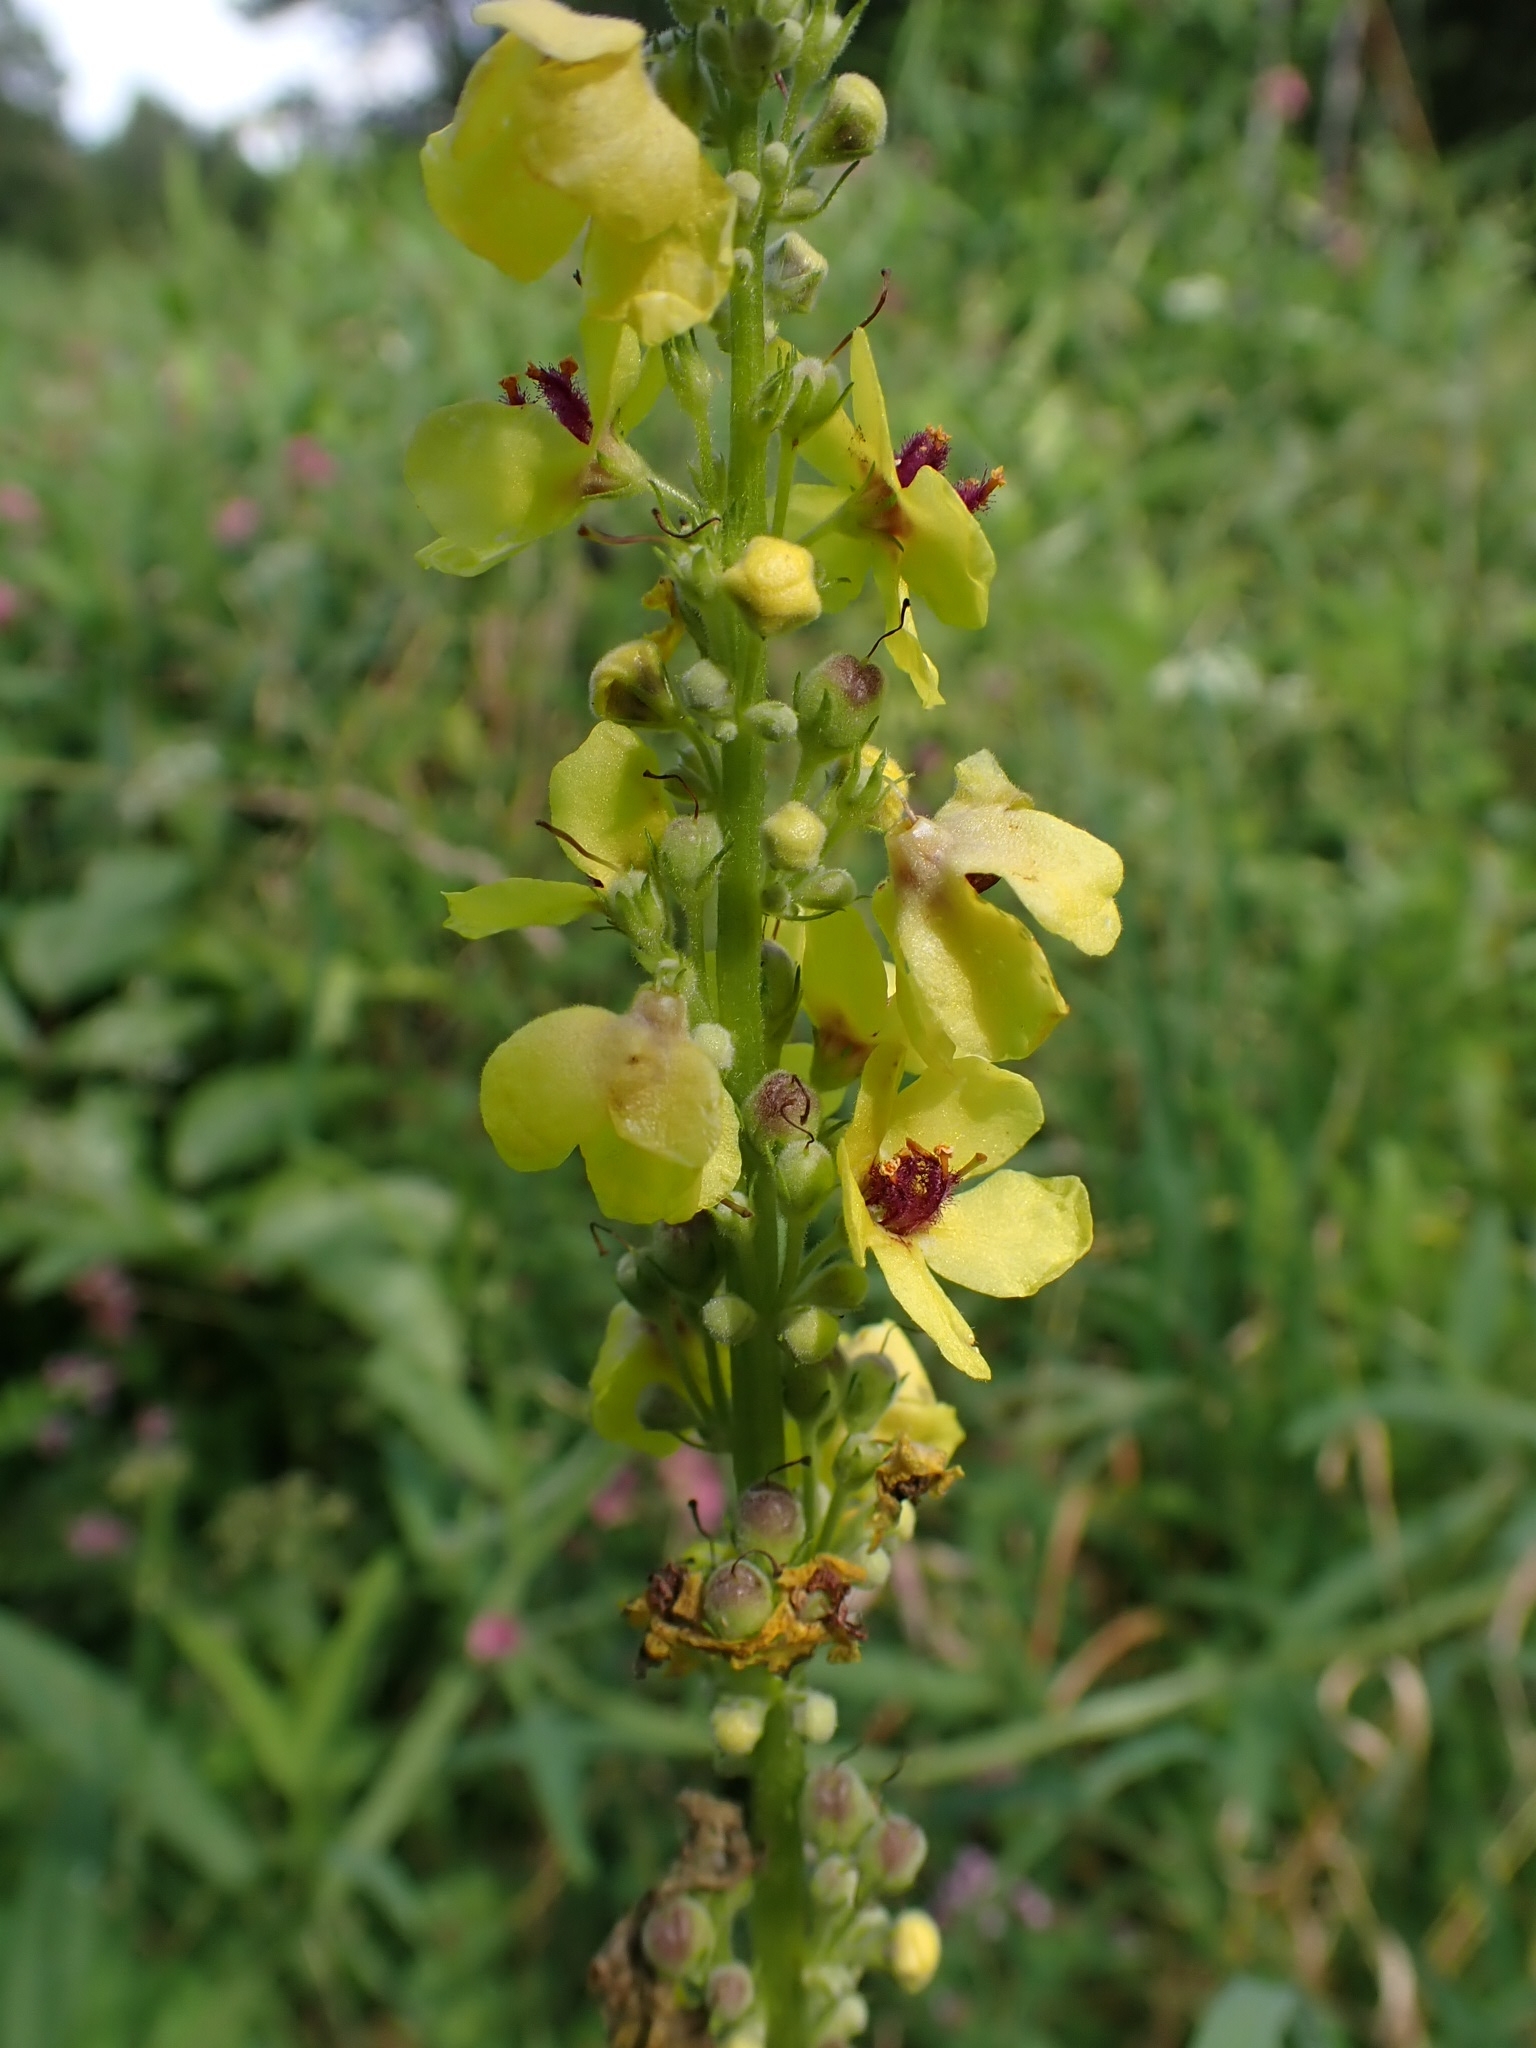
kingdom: Plantae
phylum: Tracheophyta
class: Magnoliopsida
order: Lamiales
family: Scrophulariaceae
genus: Verbascum
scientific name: Verbascum nigrum
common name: Dark mullein
